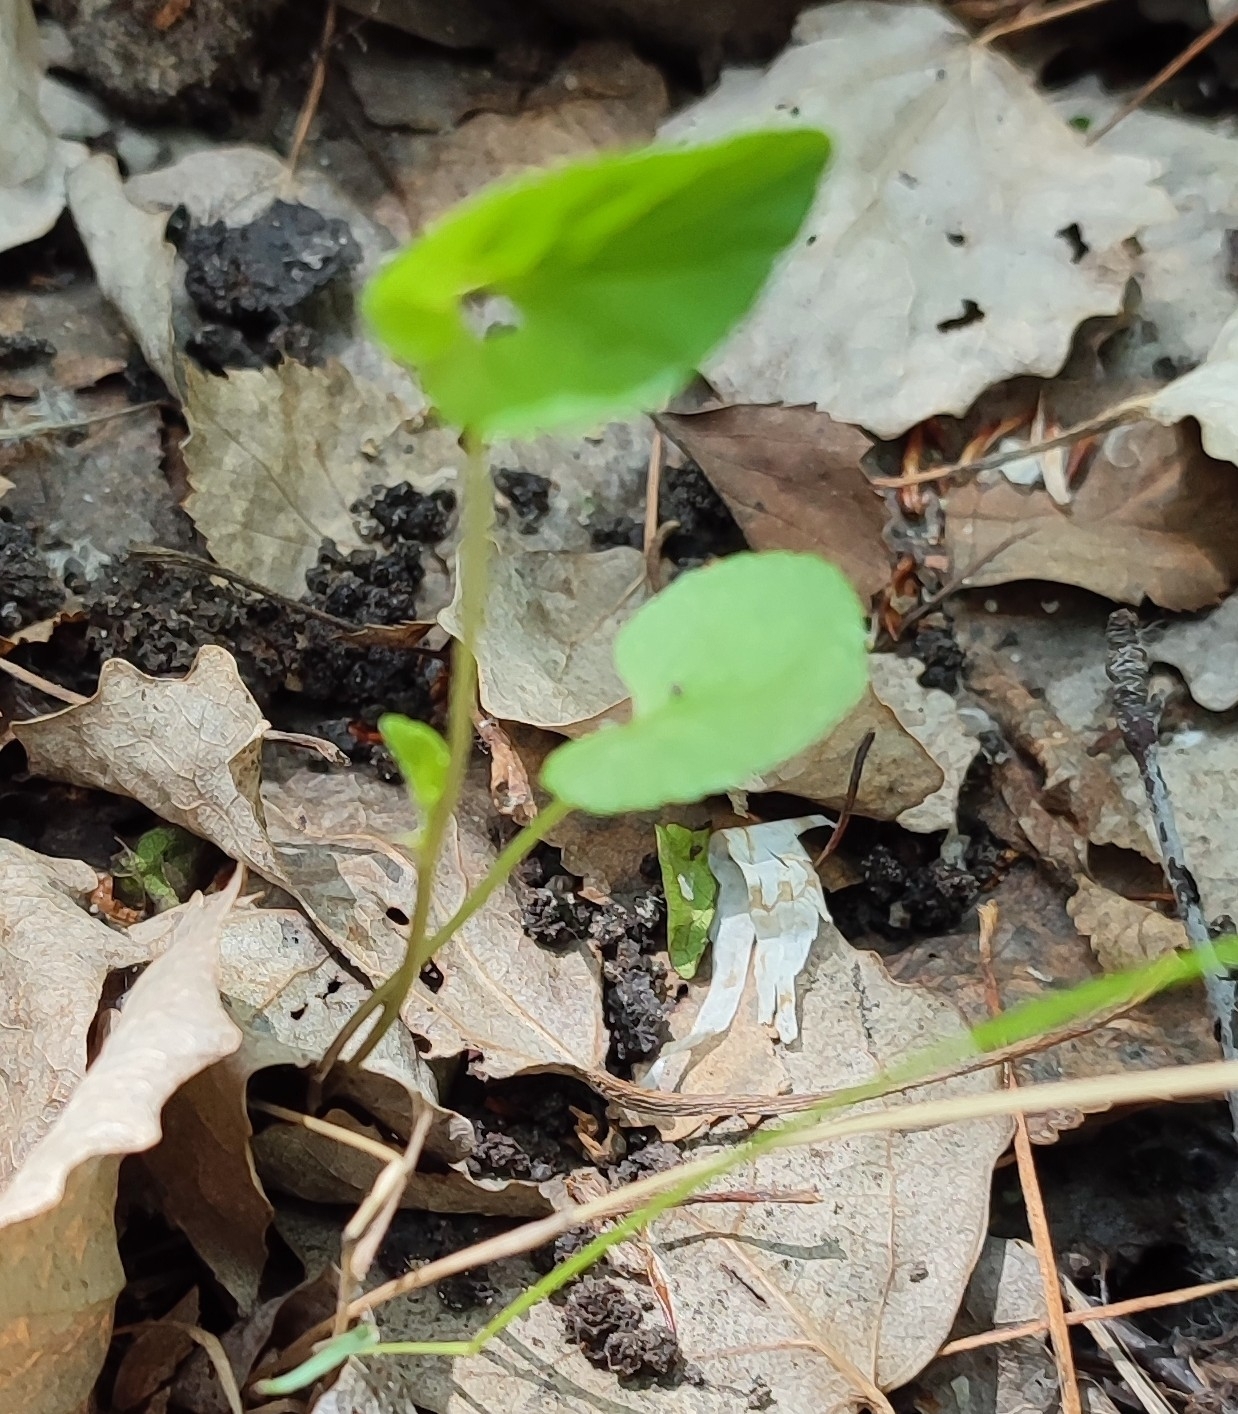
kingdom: Plantae
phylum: Tracheophyta
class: Magnoliopsida
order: Malpighiales
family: Violaceae
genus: Viola
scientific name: Viola
